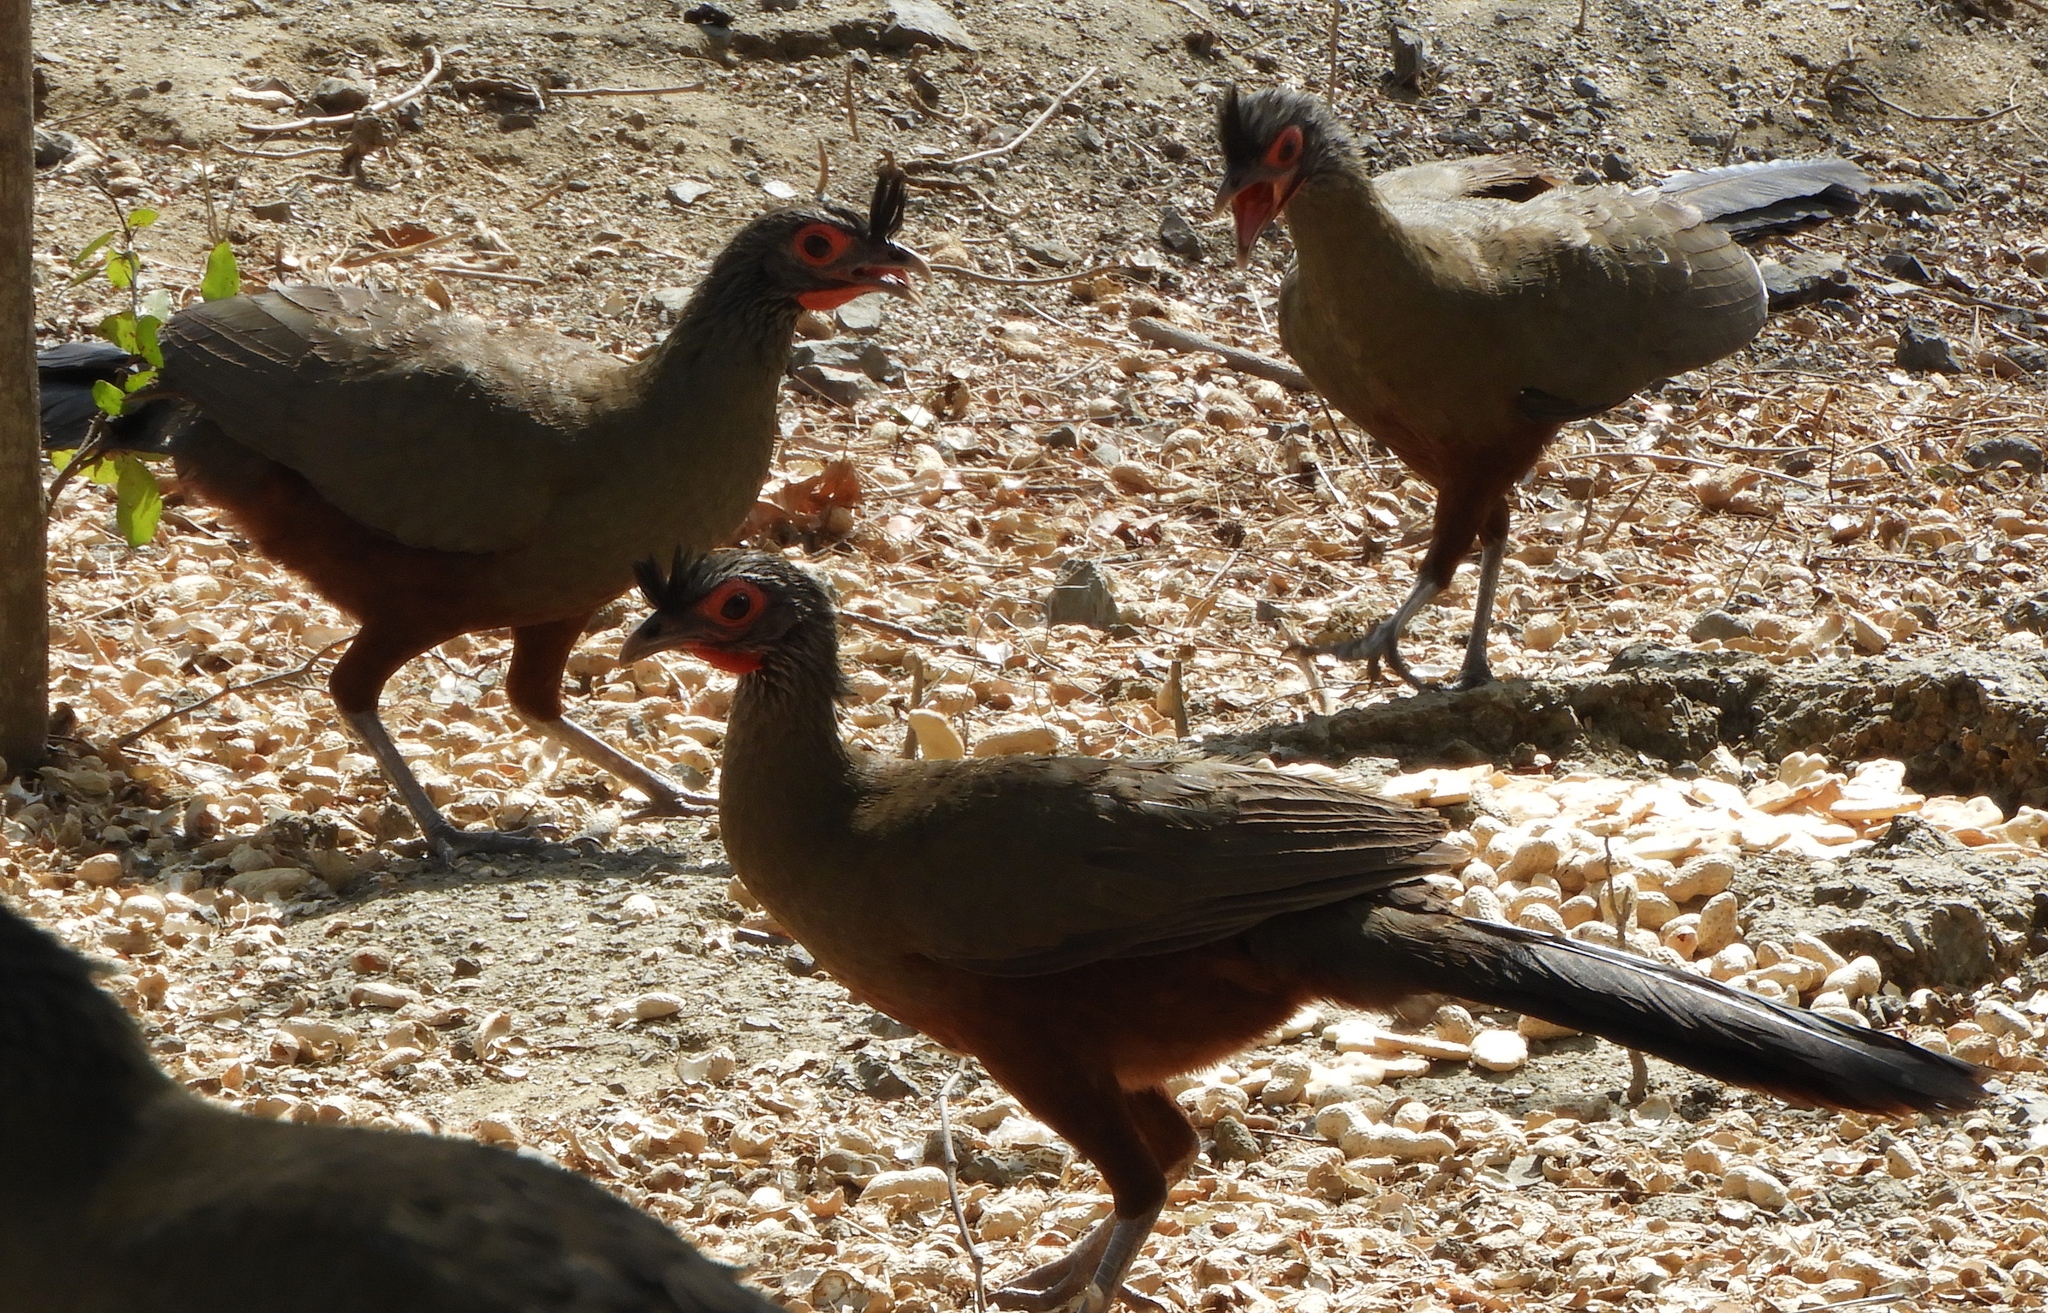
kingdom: Animalia
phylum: Chordata
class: Aves
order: Galliformes
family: Cracidae
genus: Ortalis
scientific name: Ortalis wagleri
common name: Rufous-bellied chachalaca
